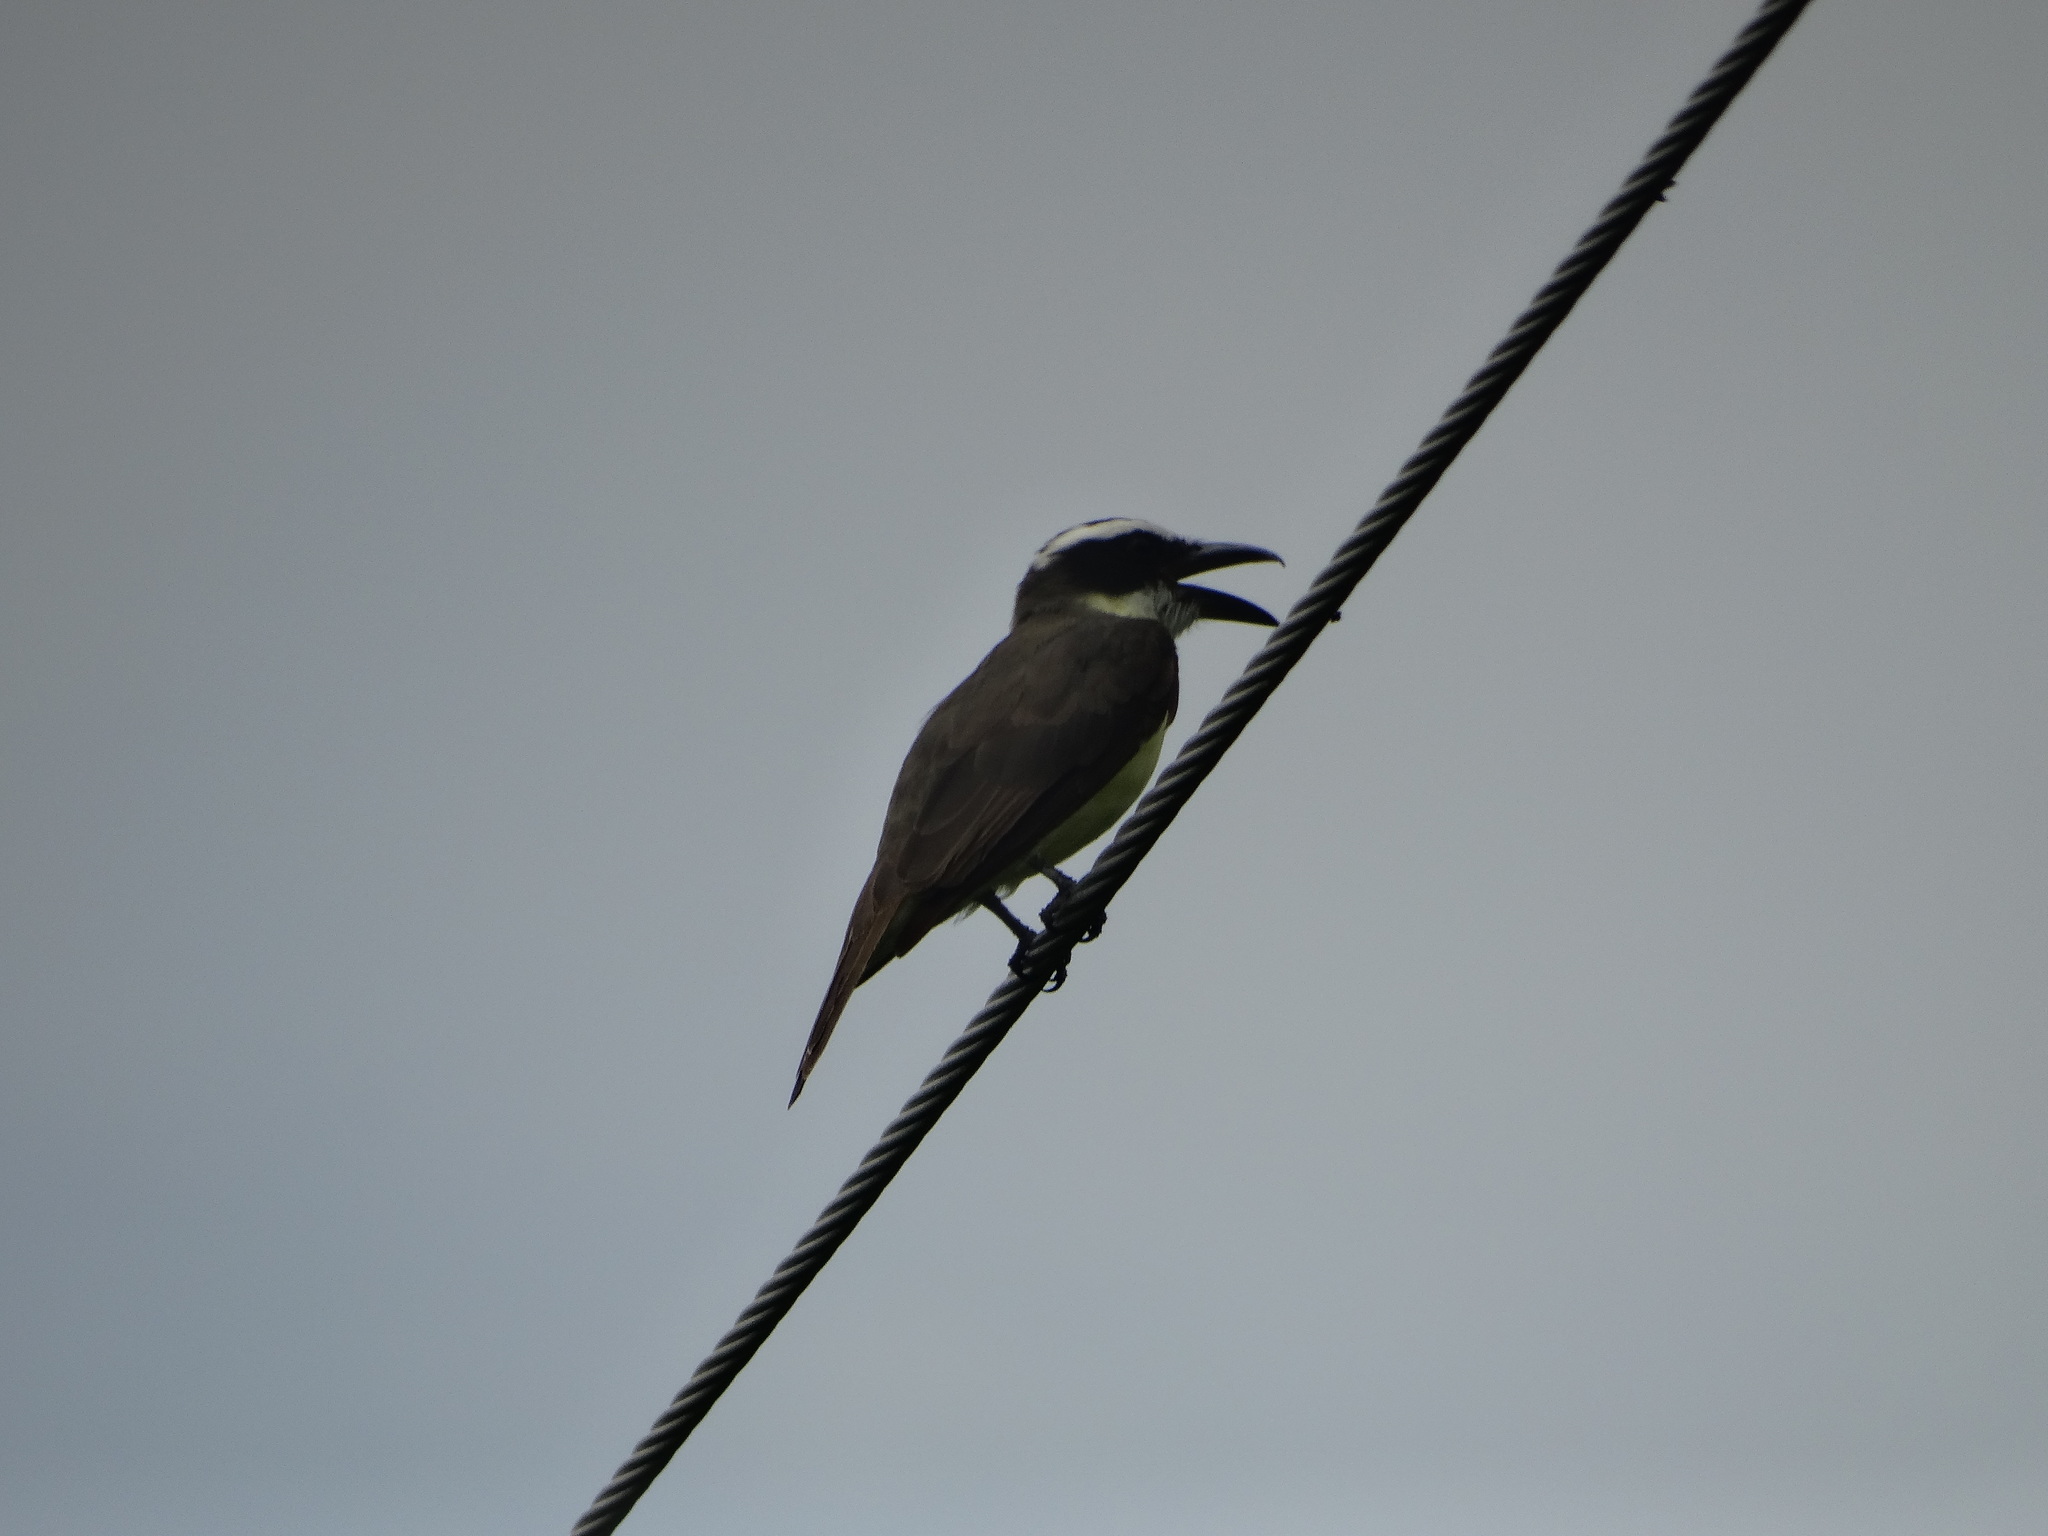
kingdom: Animalia
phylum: Chordata
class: Aves
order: Passeriformes
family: Tyrannidae
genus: Megarynchus
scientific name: Megarynchus pitangua
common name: Boat-billed flycatcher
